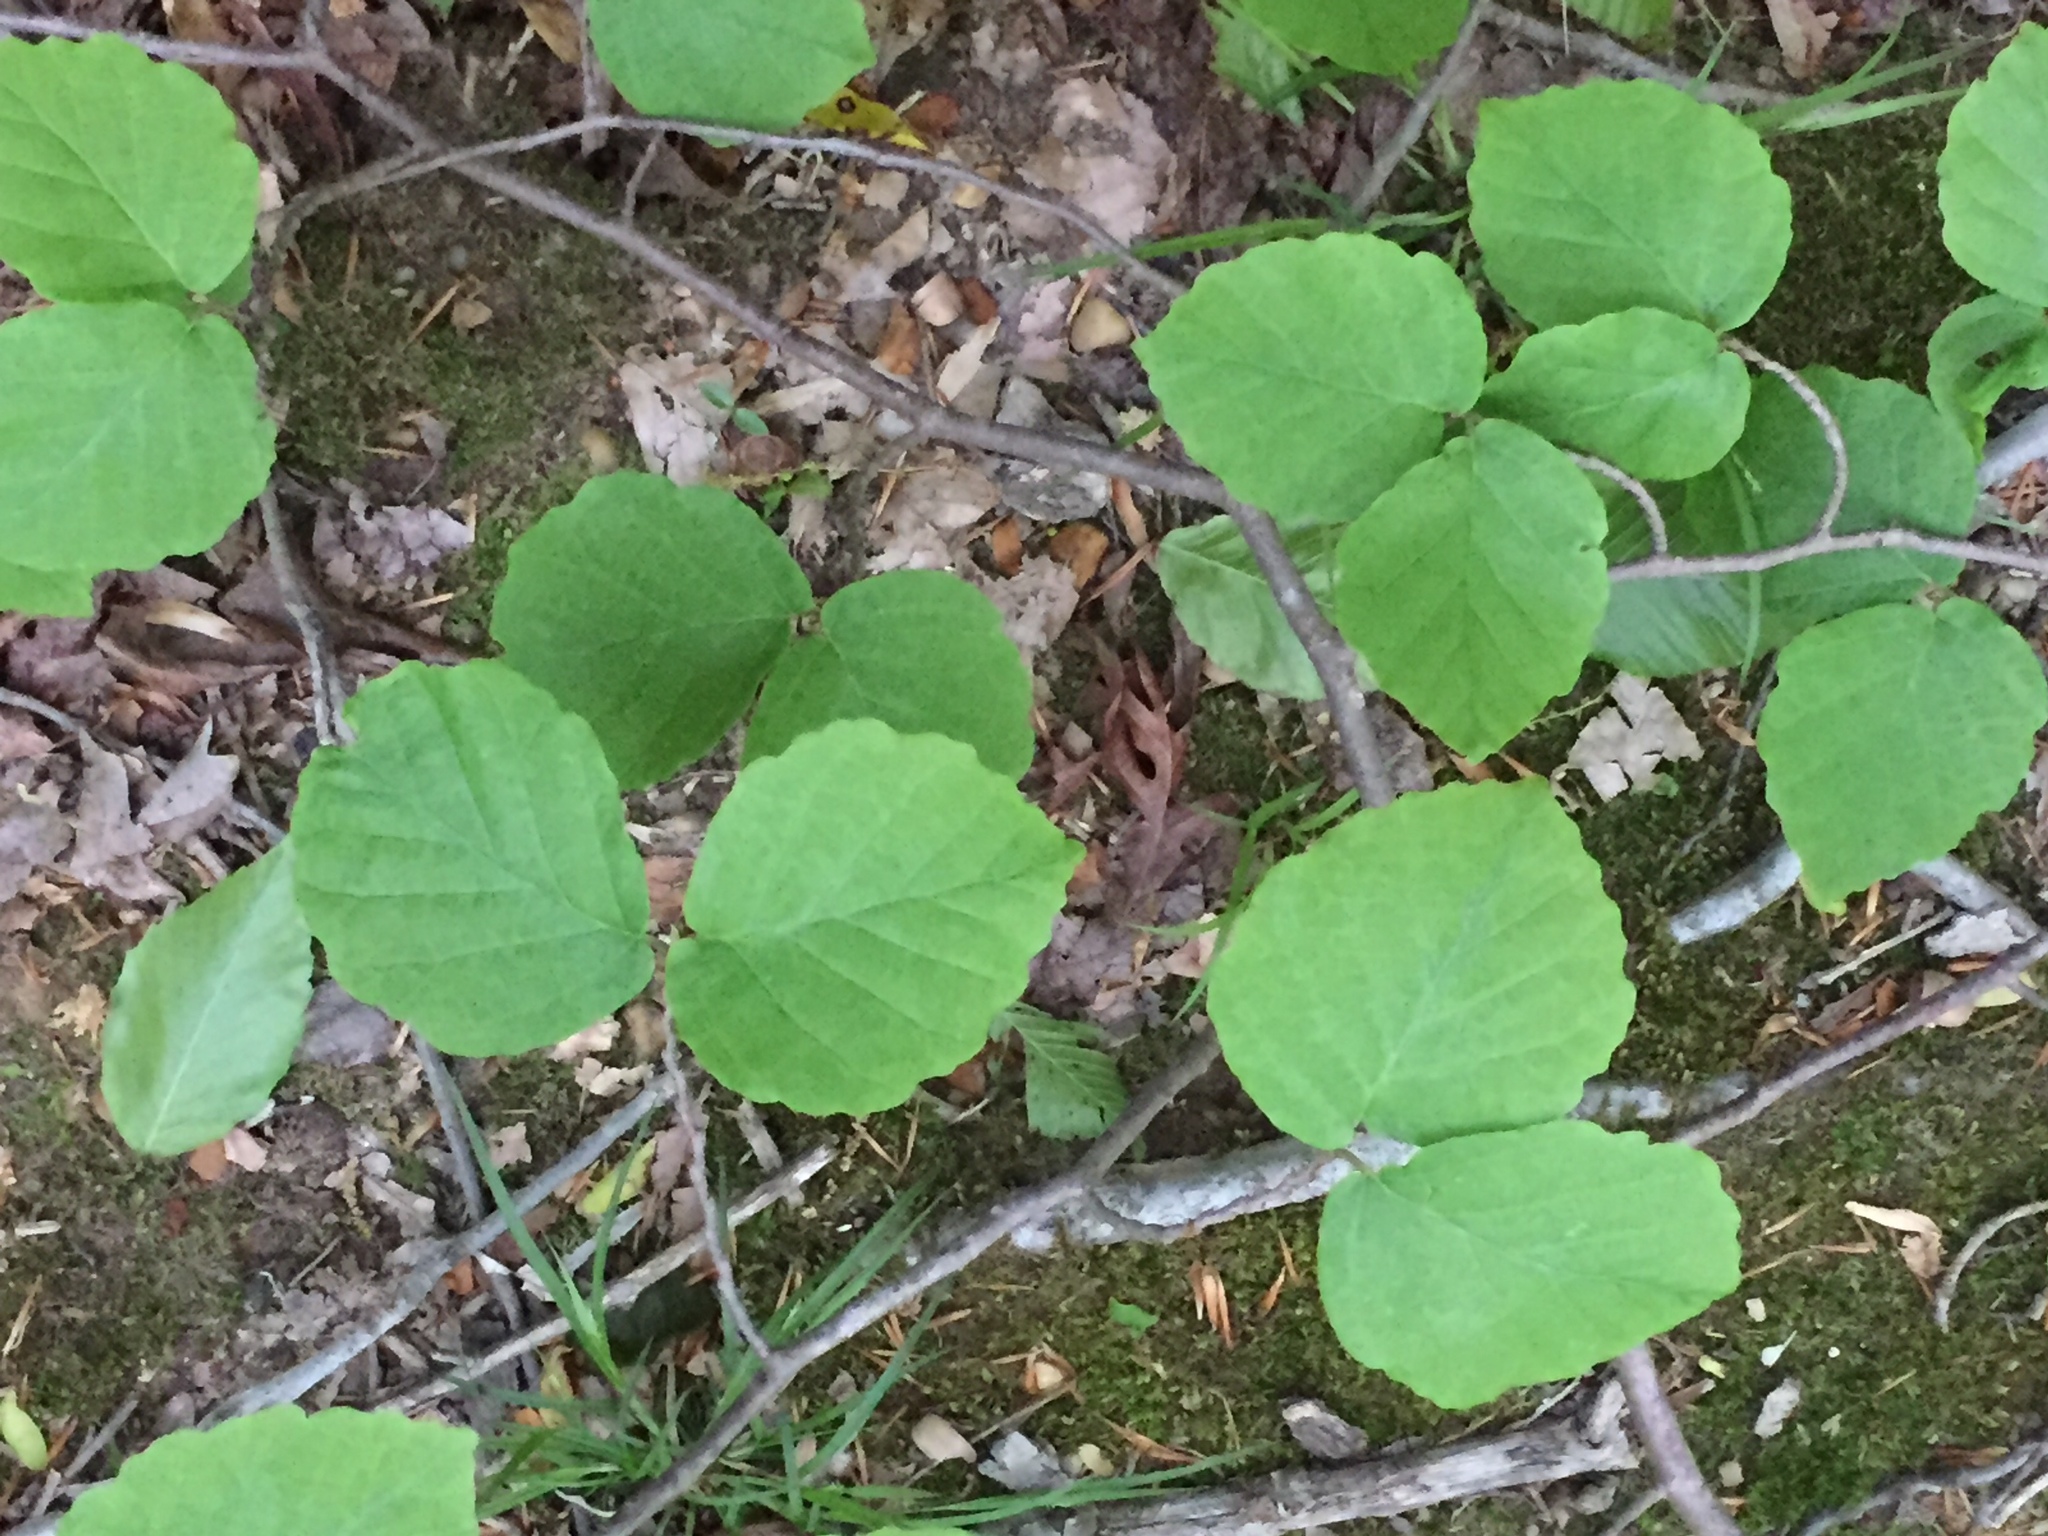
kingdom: Plantae
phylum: Tracheophyta
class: Magnoliopsida
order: Saxifragales
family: Hamamelidaceae
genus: Hamamelis
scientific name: Hamamelis virginiana
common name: Witch-hazel
